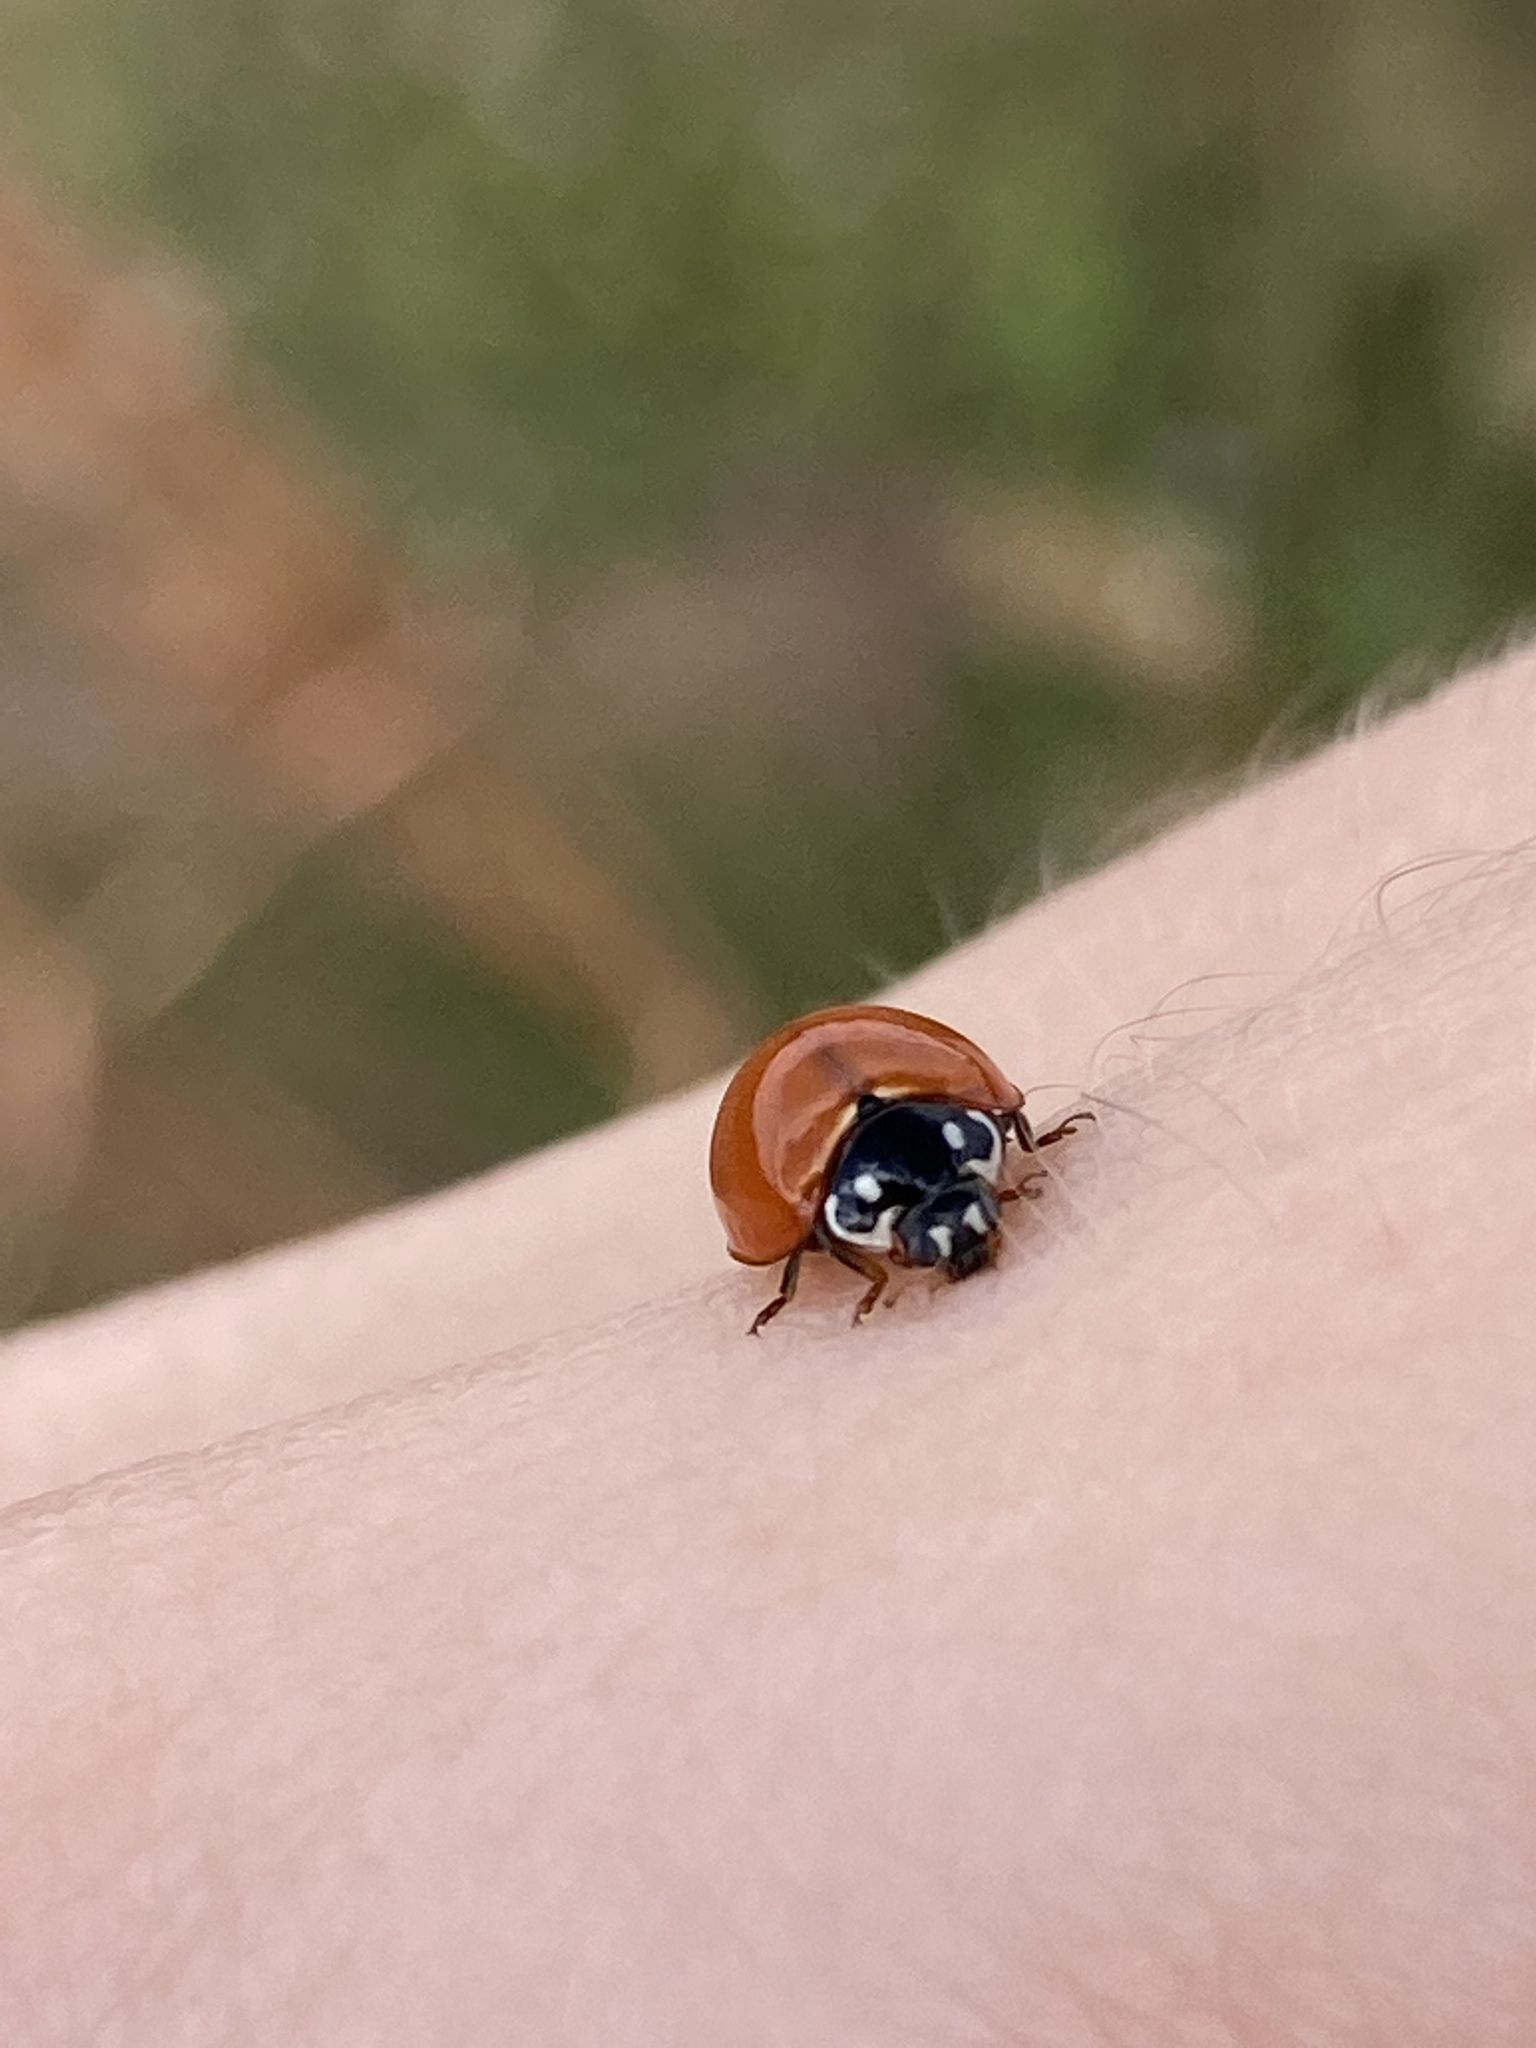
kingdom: Animalia
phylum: Arthropoda
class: Insecta
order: Coleoptera
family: Coccinellidae
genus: Cycloneda
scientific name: Cycloneda sanguinea
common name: Ladybird beetle
